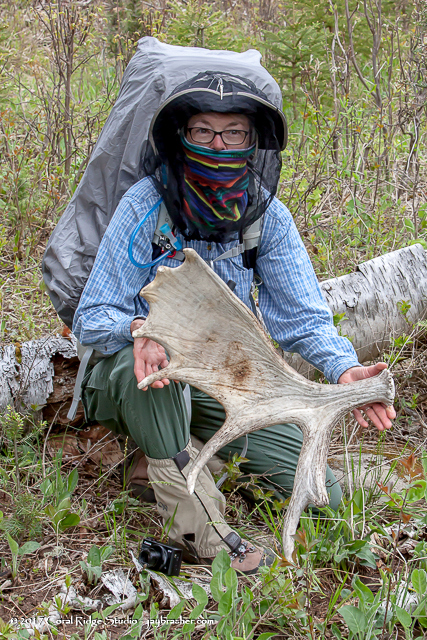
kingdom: Animalia
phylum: Chordata
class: Mammalia
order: Artiodactyla
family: Cervidae
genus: Alces
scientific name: Alces alces
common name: Moose
